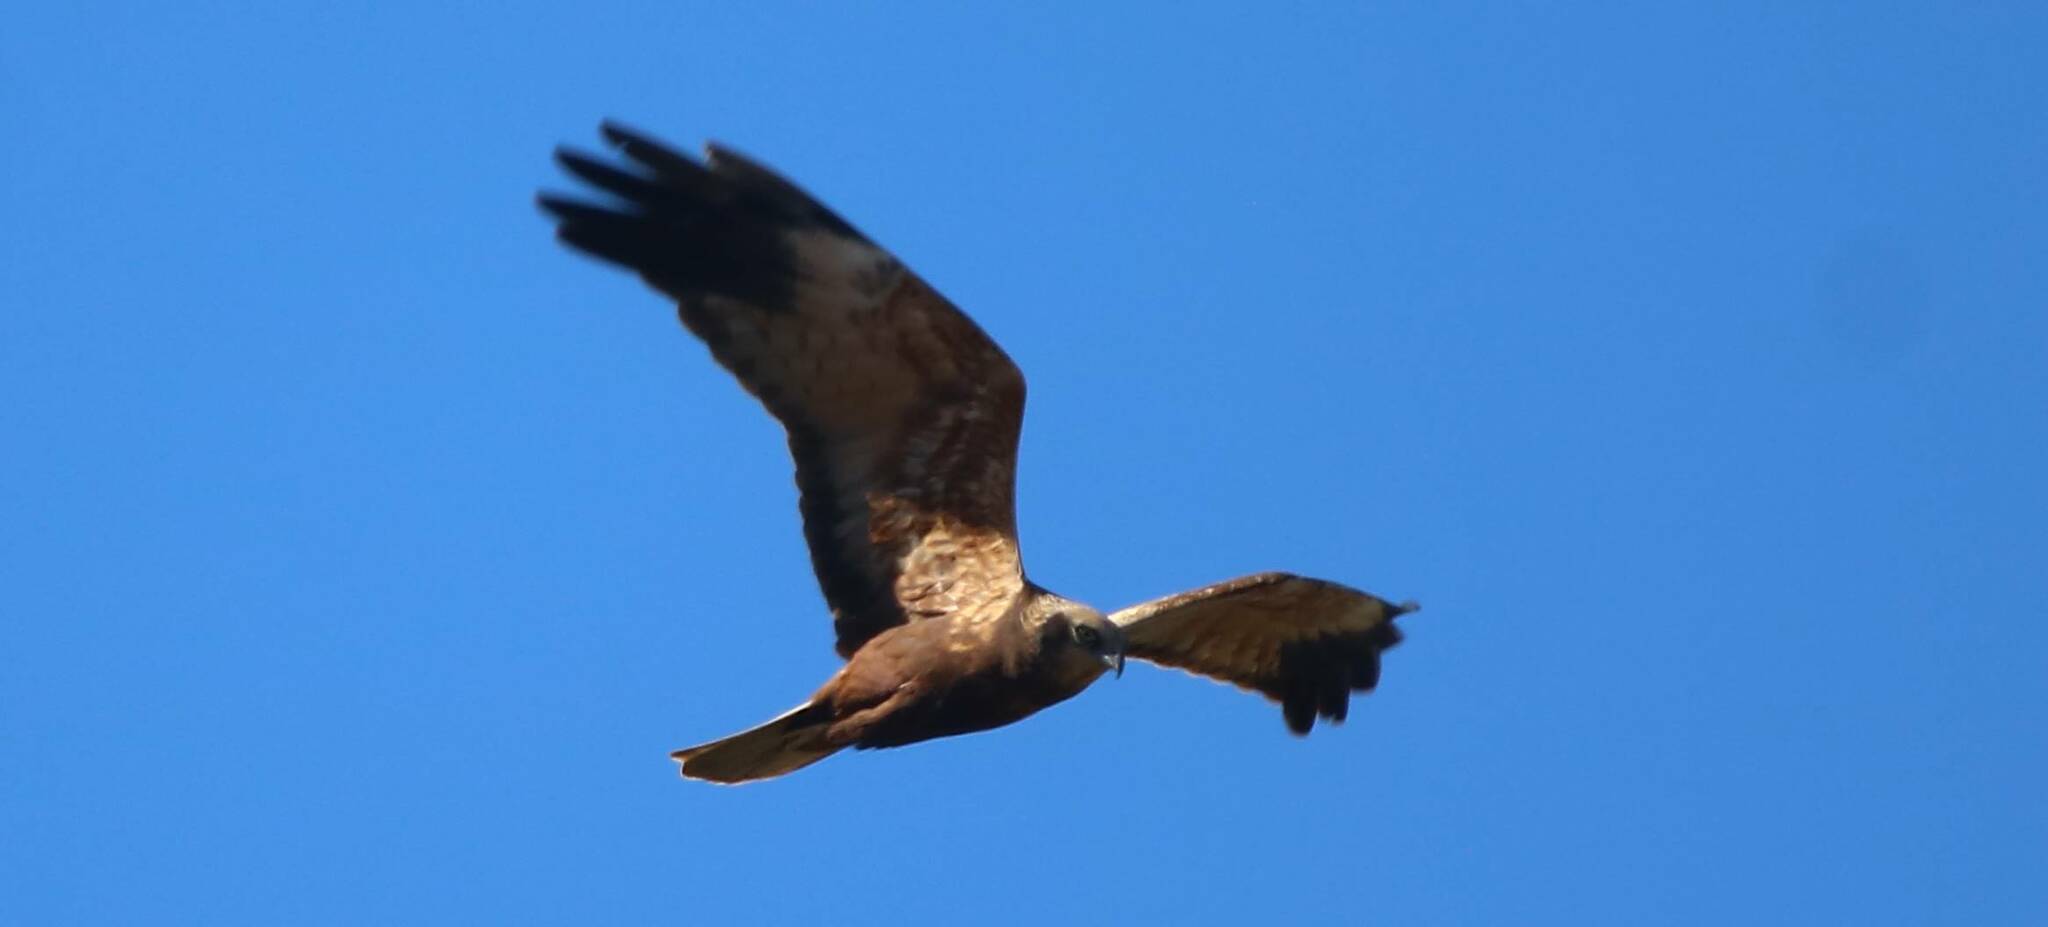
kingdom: Animalia
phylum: Chordata
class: Aves
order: Accipitriformes
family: Accipitridae
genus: Circus
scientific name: Circus aeruginosus
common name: Western marsh harrier
